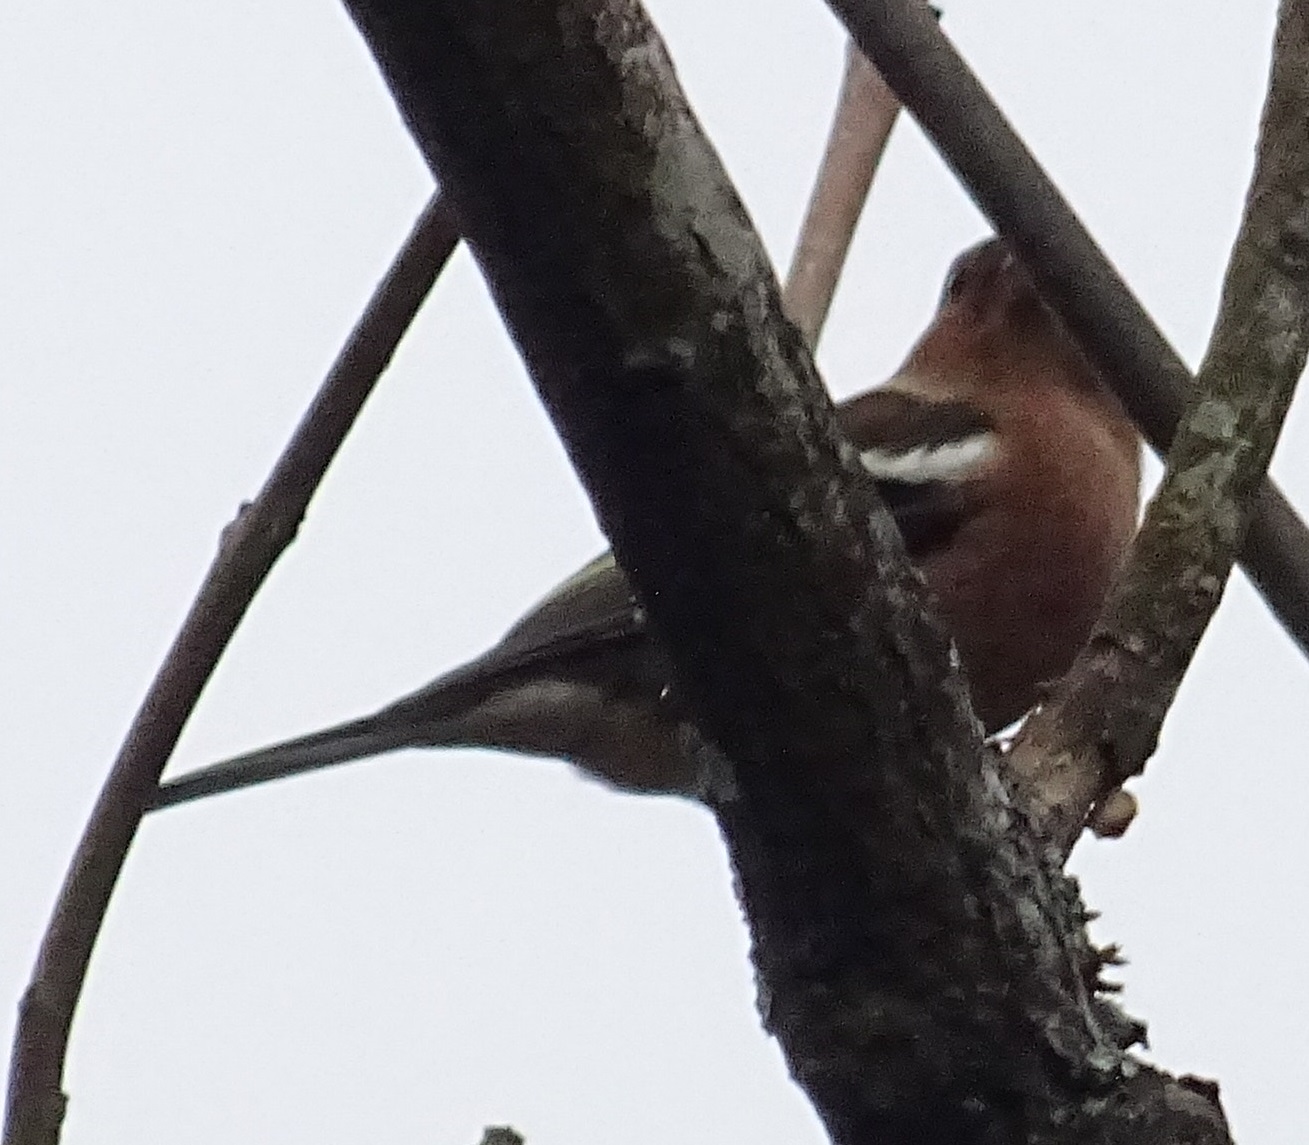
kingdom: Animalia
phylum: Chordata
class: Aves
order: Passeriformes
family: Fringillidae
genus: Fringilla
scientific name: Fringilla coelebs
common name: Common chaffinch
